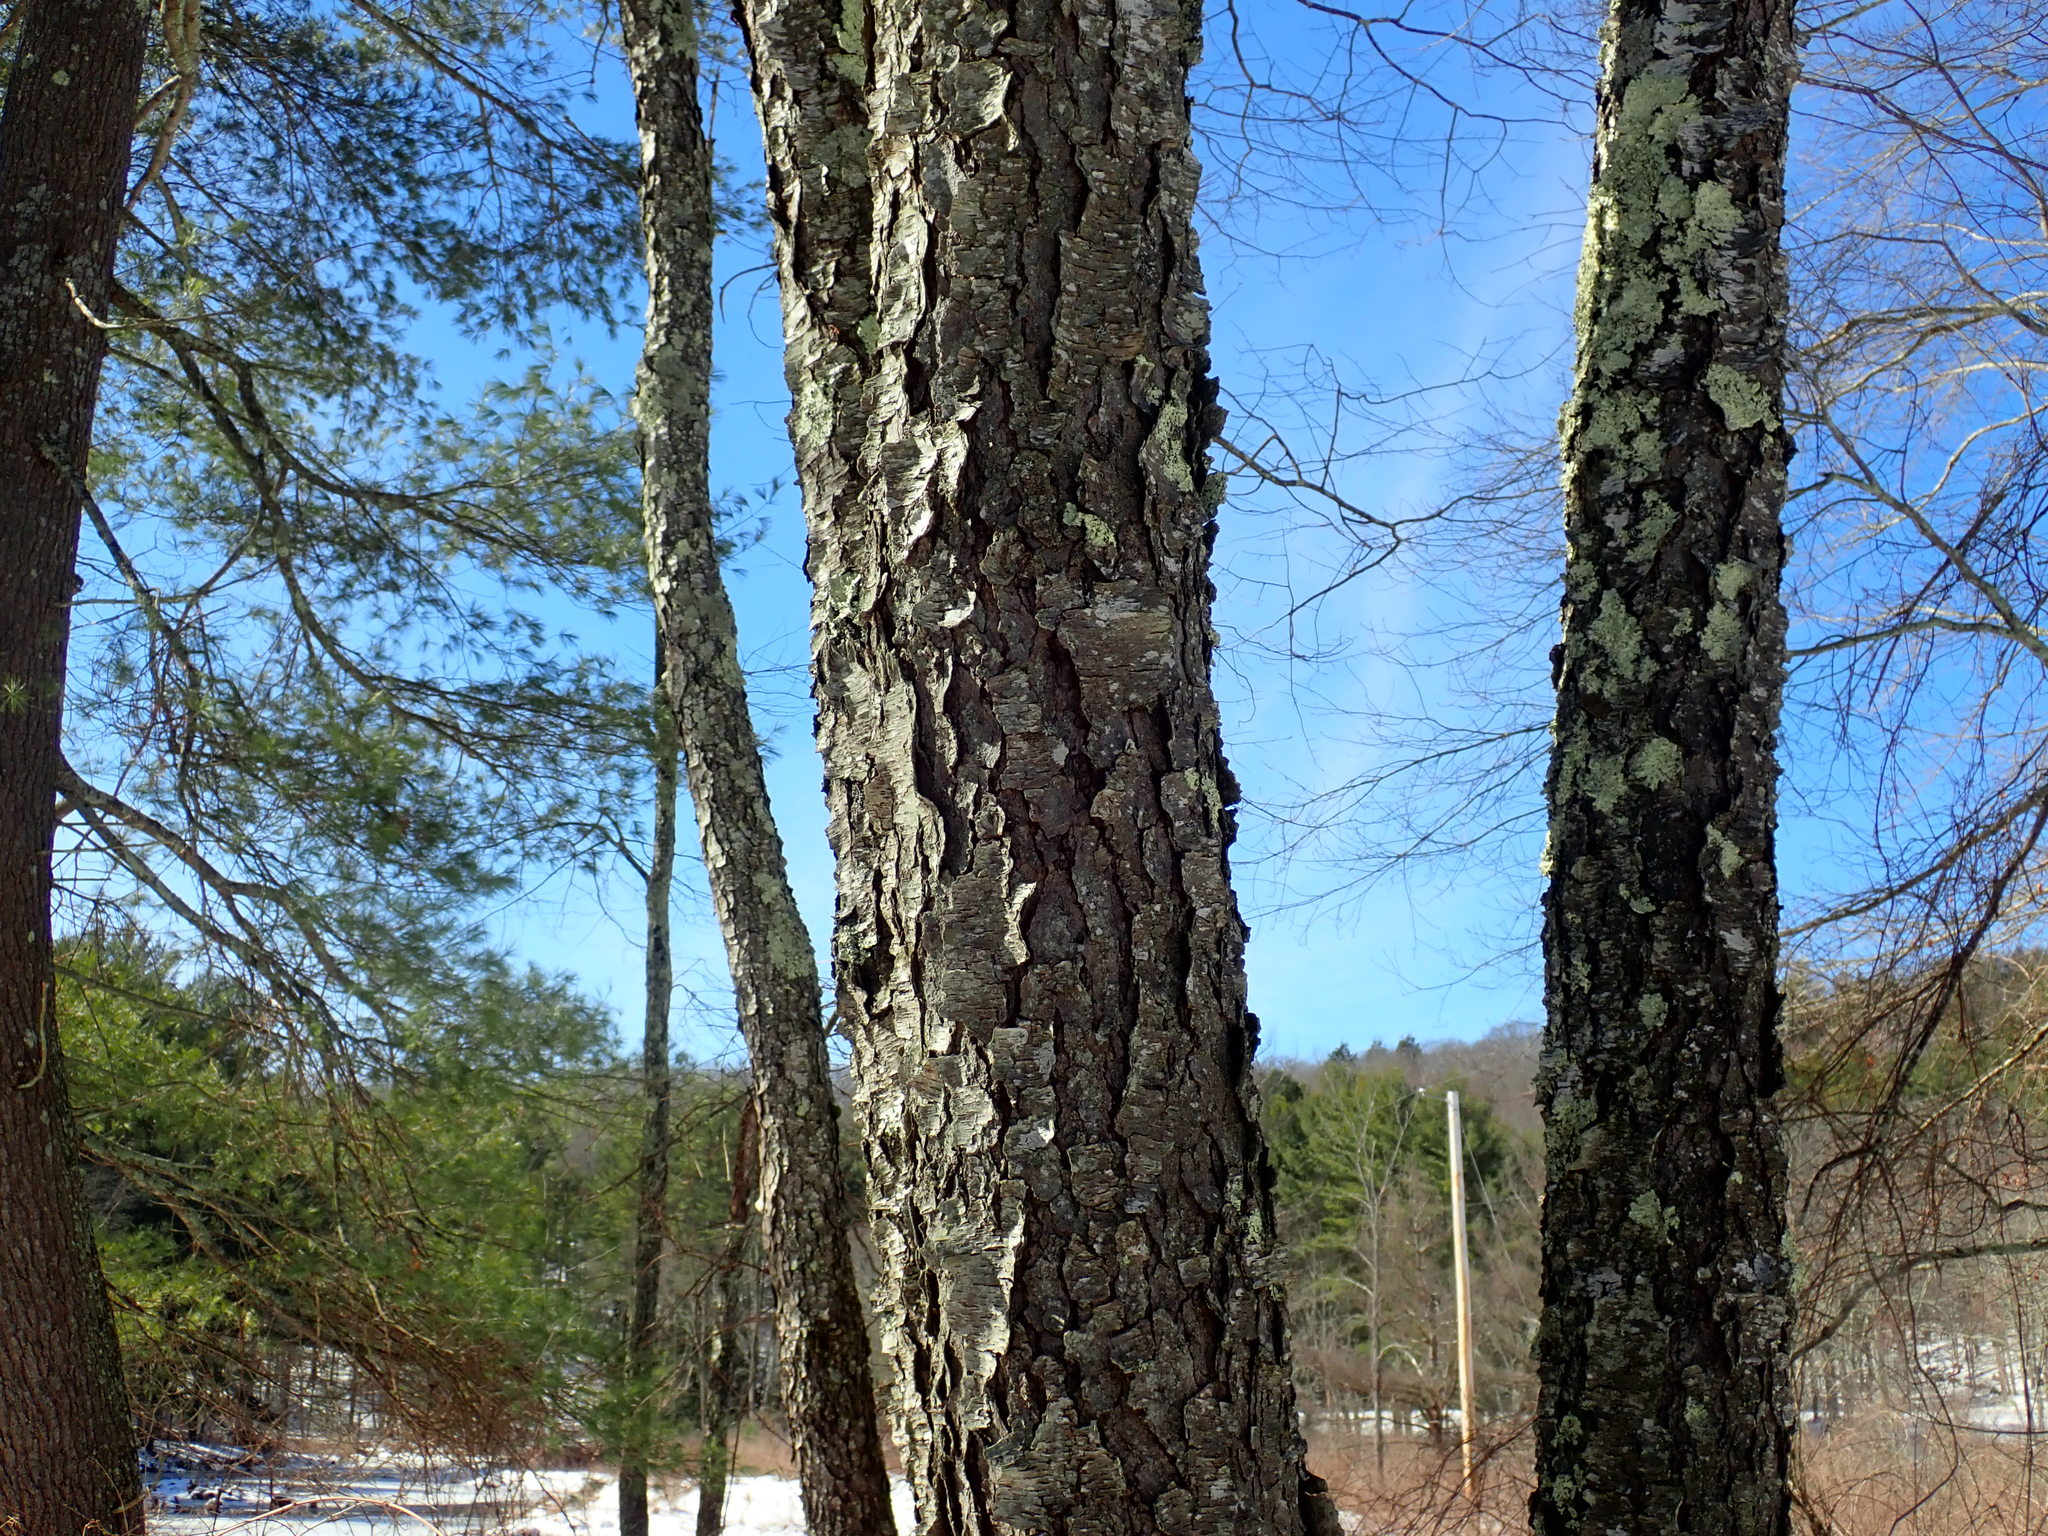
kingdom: Plantae
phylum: Tracheophyta
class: Magnoliopsida
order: Rosales
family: Rosaceae
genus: Prunus
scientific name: Prunus serotina
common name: Black cherry
